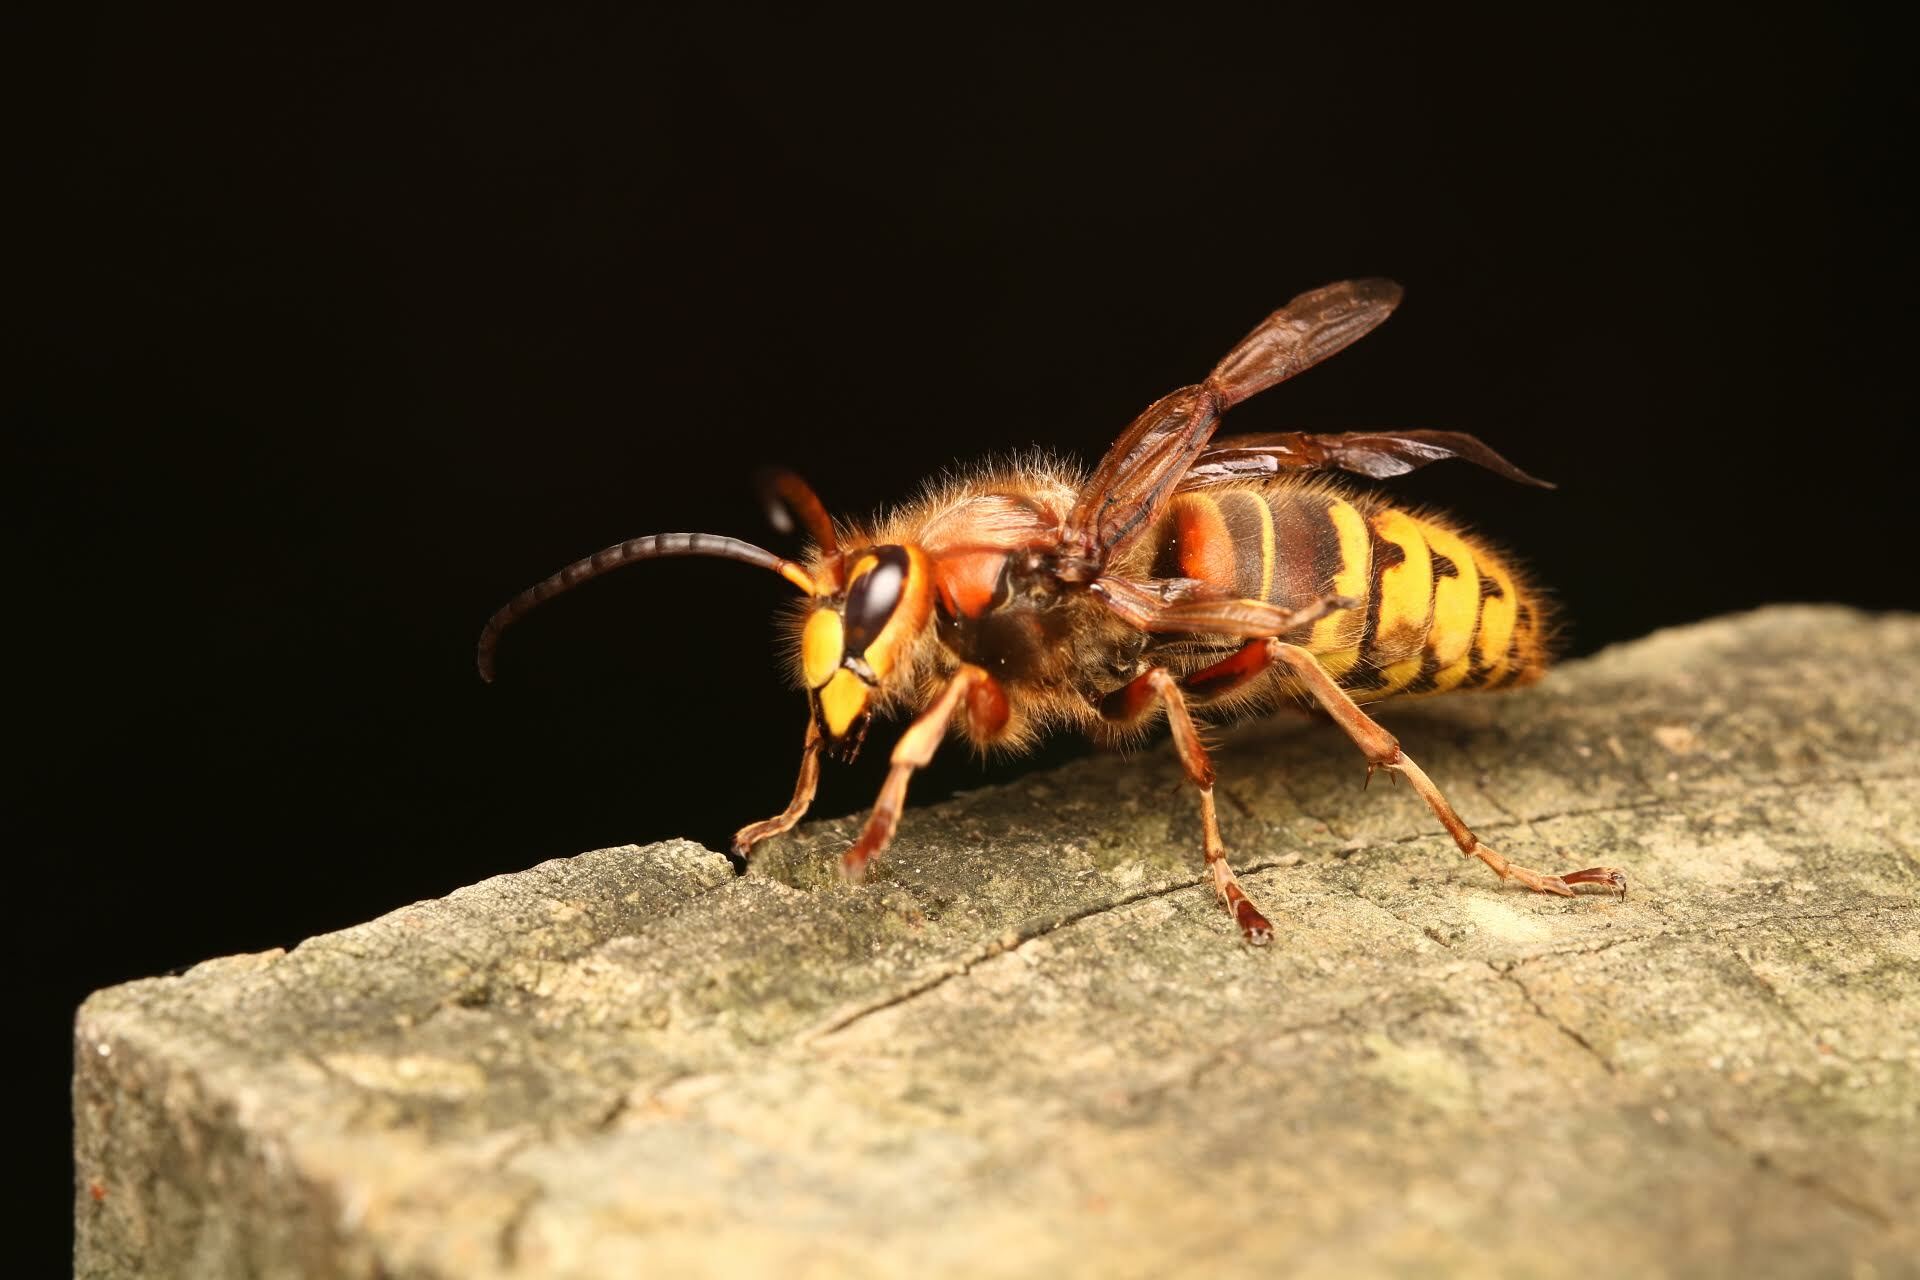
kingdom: Animalia
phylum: Arthropoda
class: Insecta
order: Hymenoptera
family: Vespidae
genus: Vespa
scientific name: Vespa crabro
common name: Hornet
